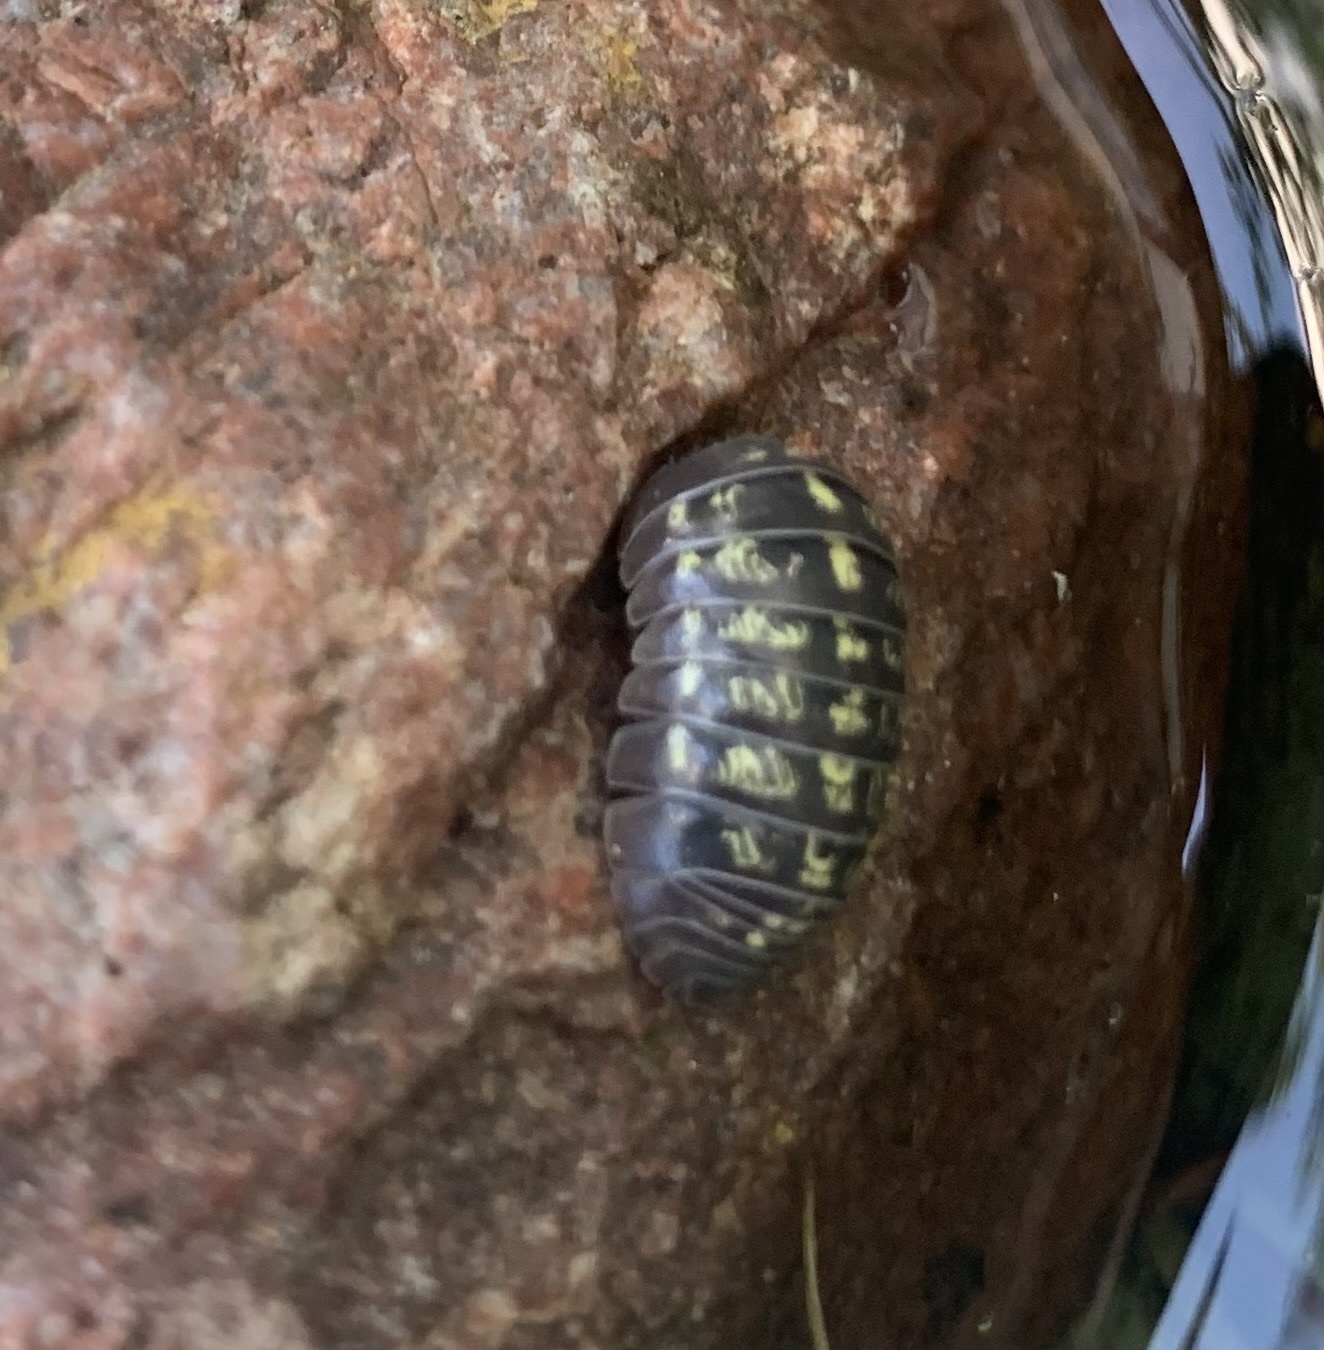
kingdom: Animalia
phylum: Arthropoda
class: Malacostraca
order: Isopoda
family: Armadillidiidae
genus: Armadillidium
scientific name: Armadillidium vulgare
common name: Common pill woodlouse
